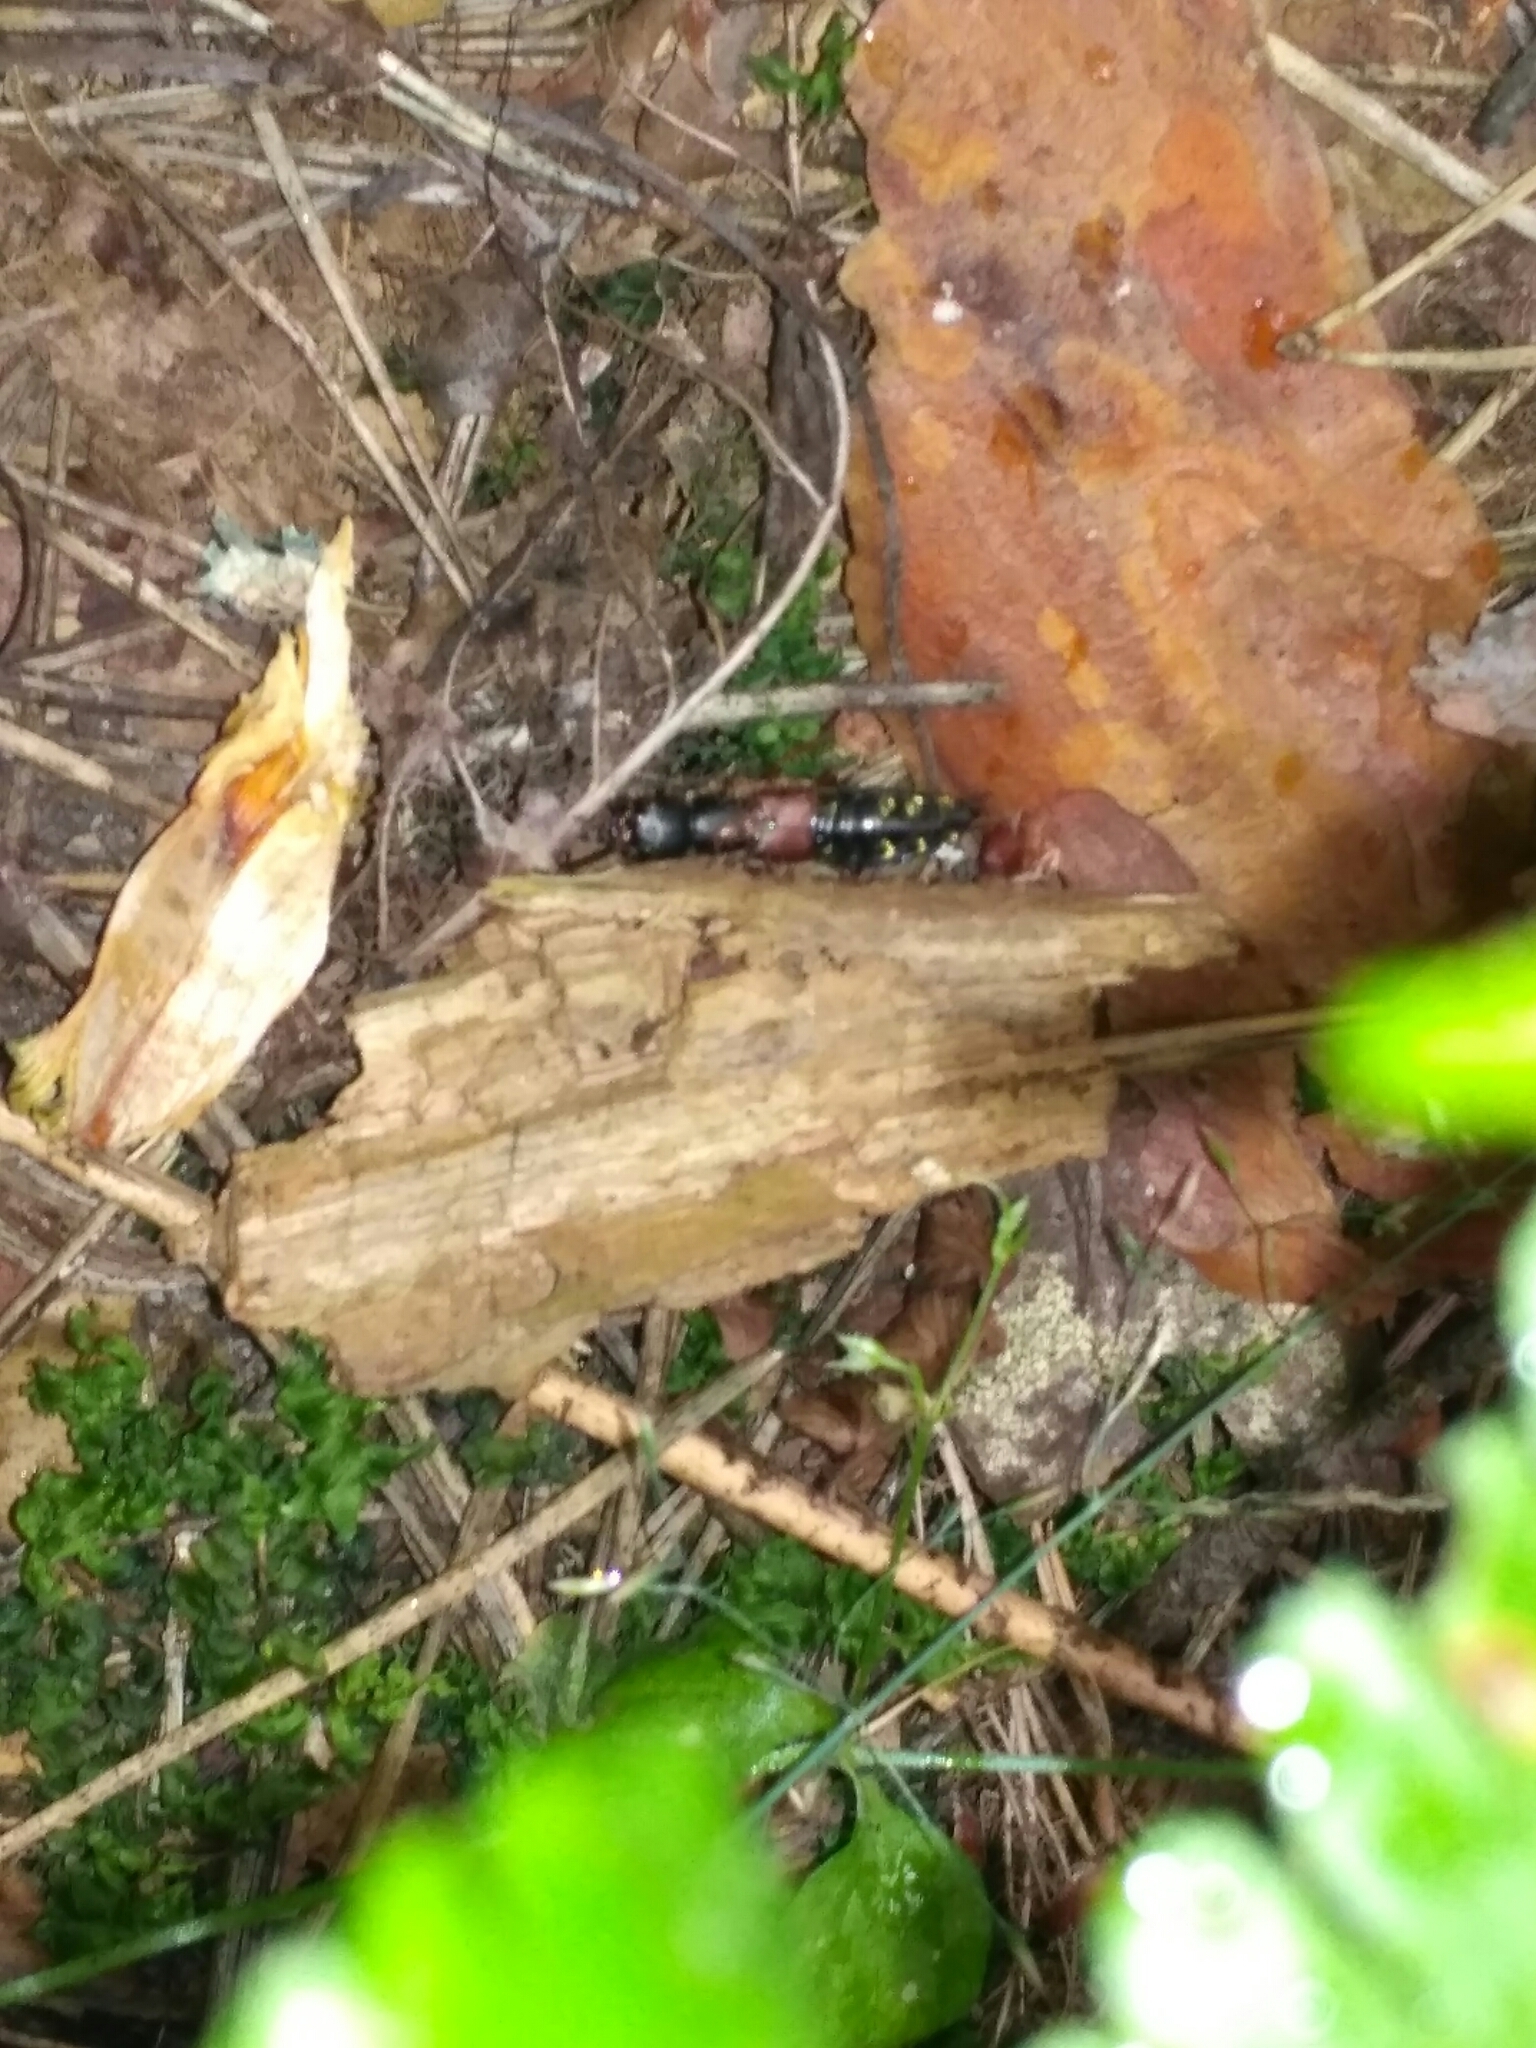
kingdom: Animalia
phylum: Arthropoda
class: Insecta
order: Coleoptera
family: Staphylinidae
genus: Staphylinus
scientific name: Staphylinus erythropterus
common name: Staph beetle
